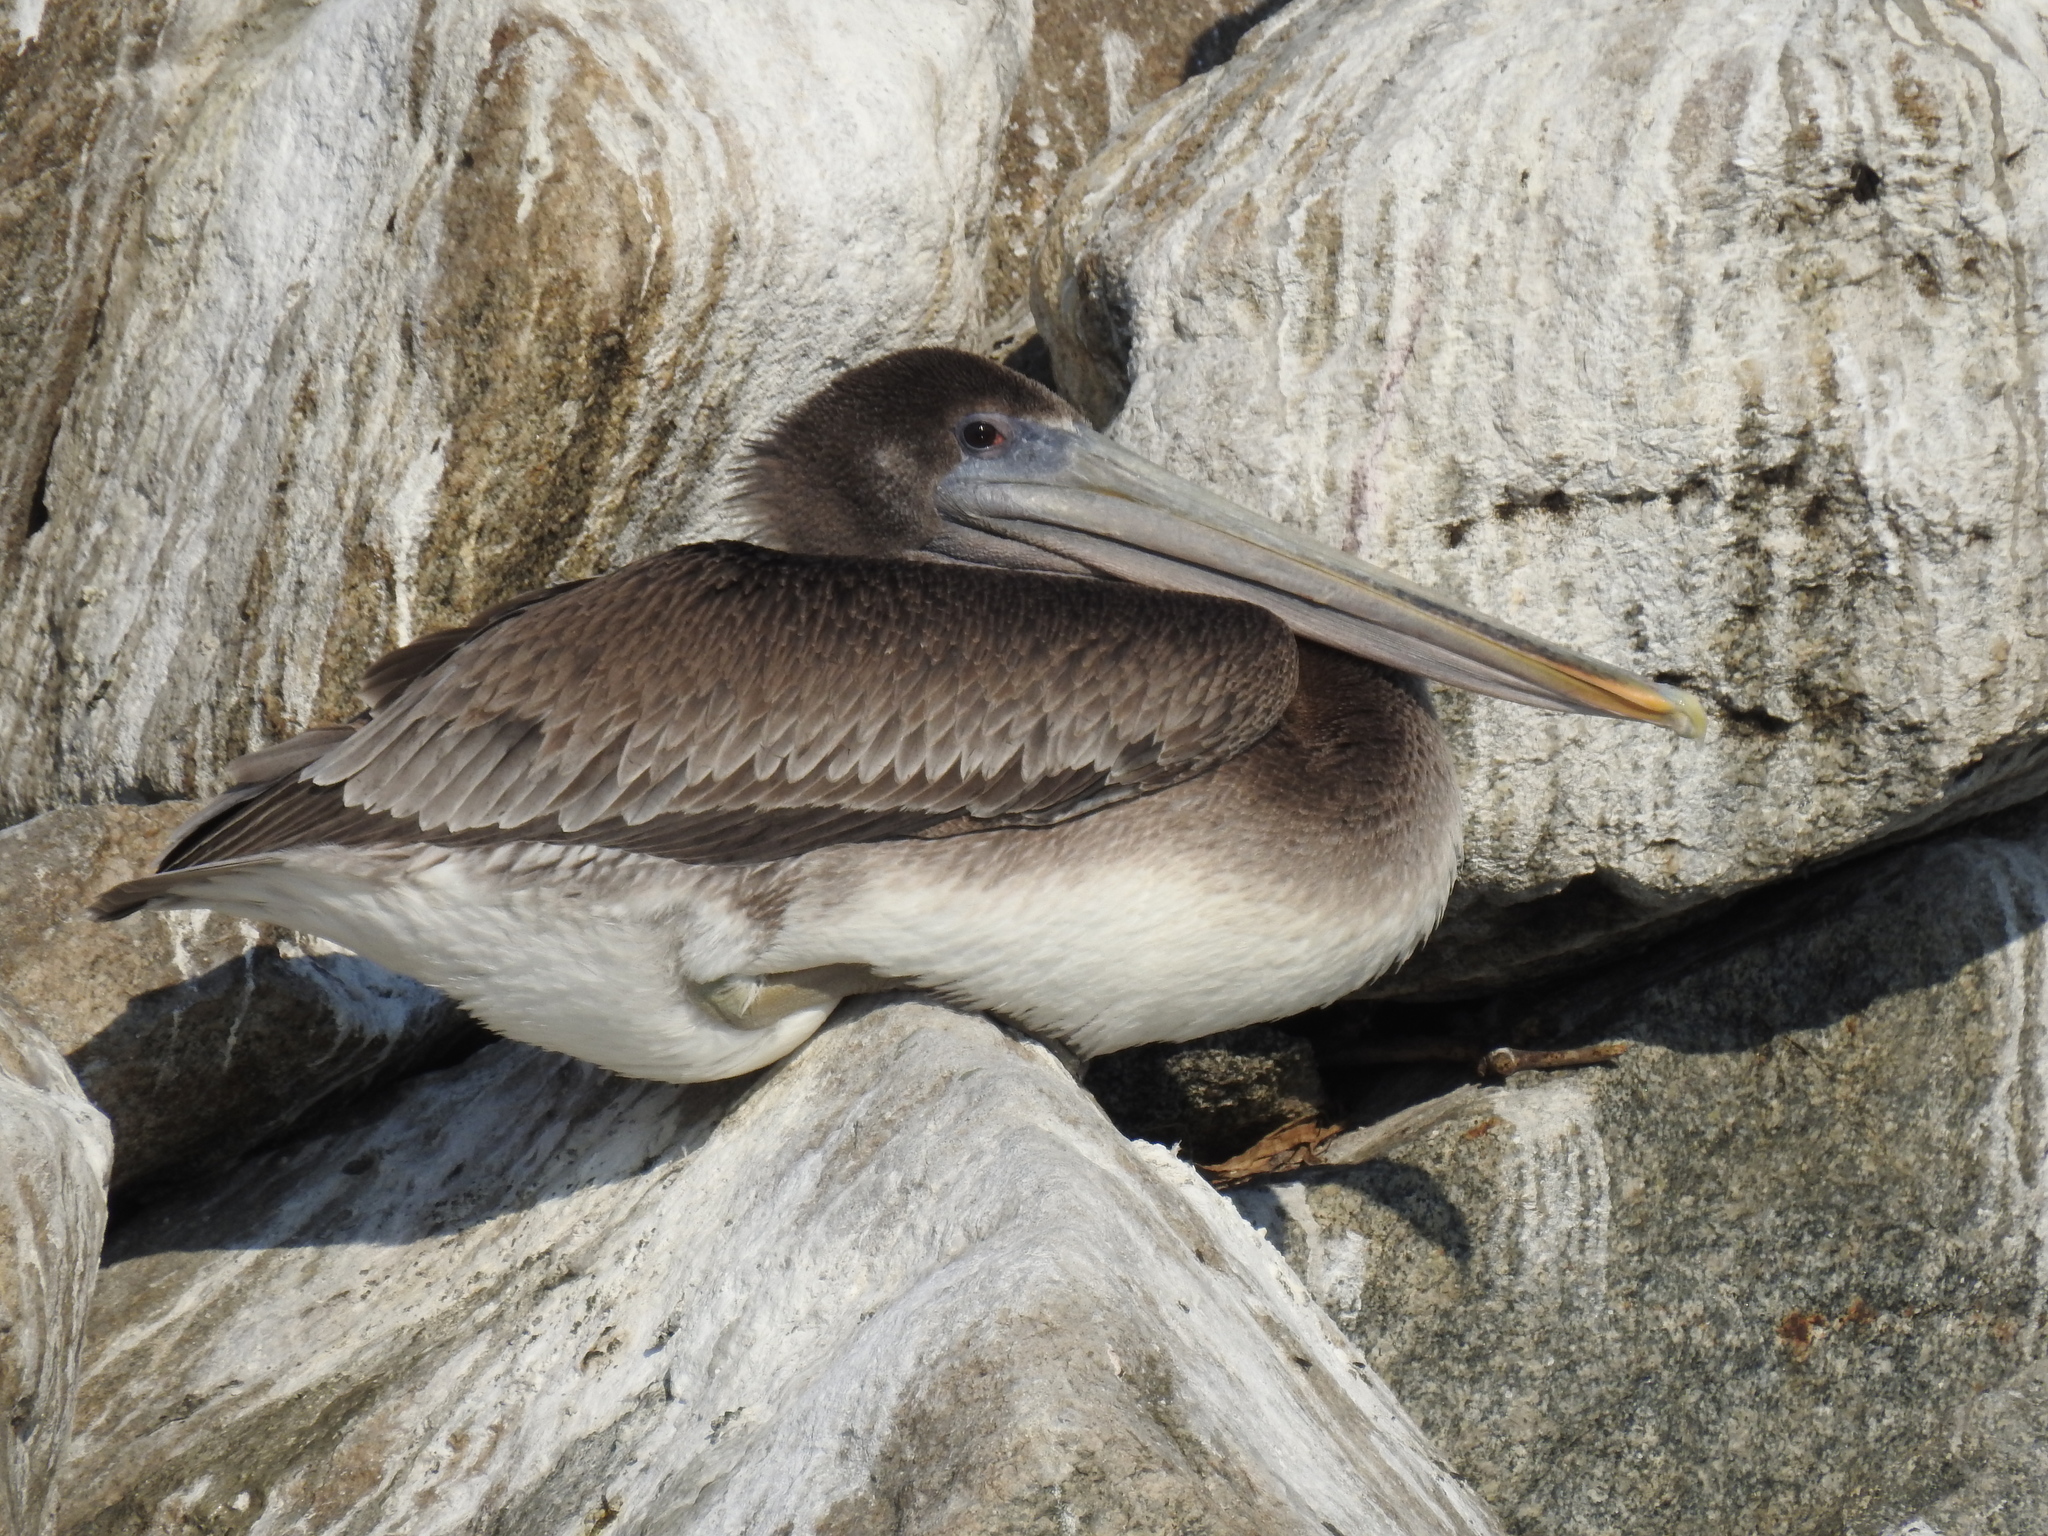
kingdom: Animalia
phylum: Chordata
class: Aves
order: Pelecaniformes
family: Pelecanidae
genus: Pelecanus
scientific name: Pelecanus occidentalis
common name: Brown pelican
